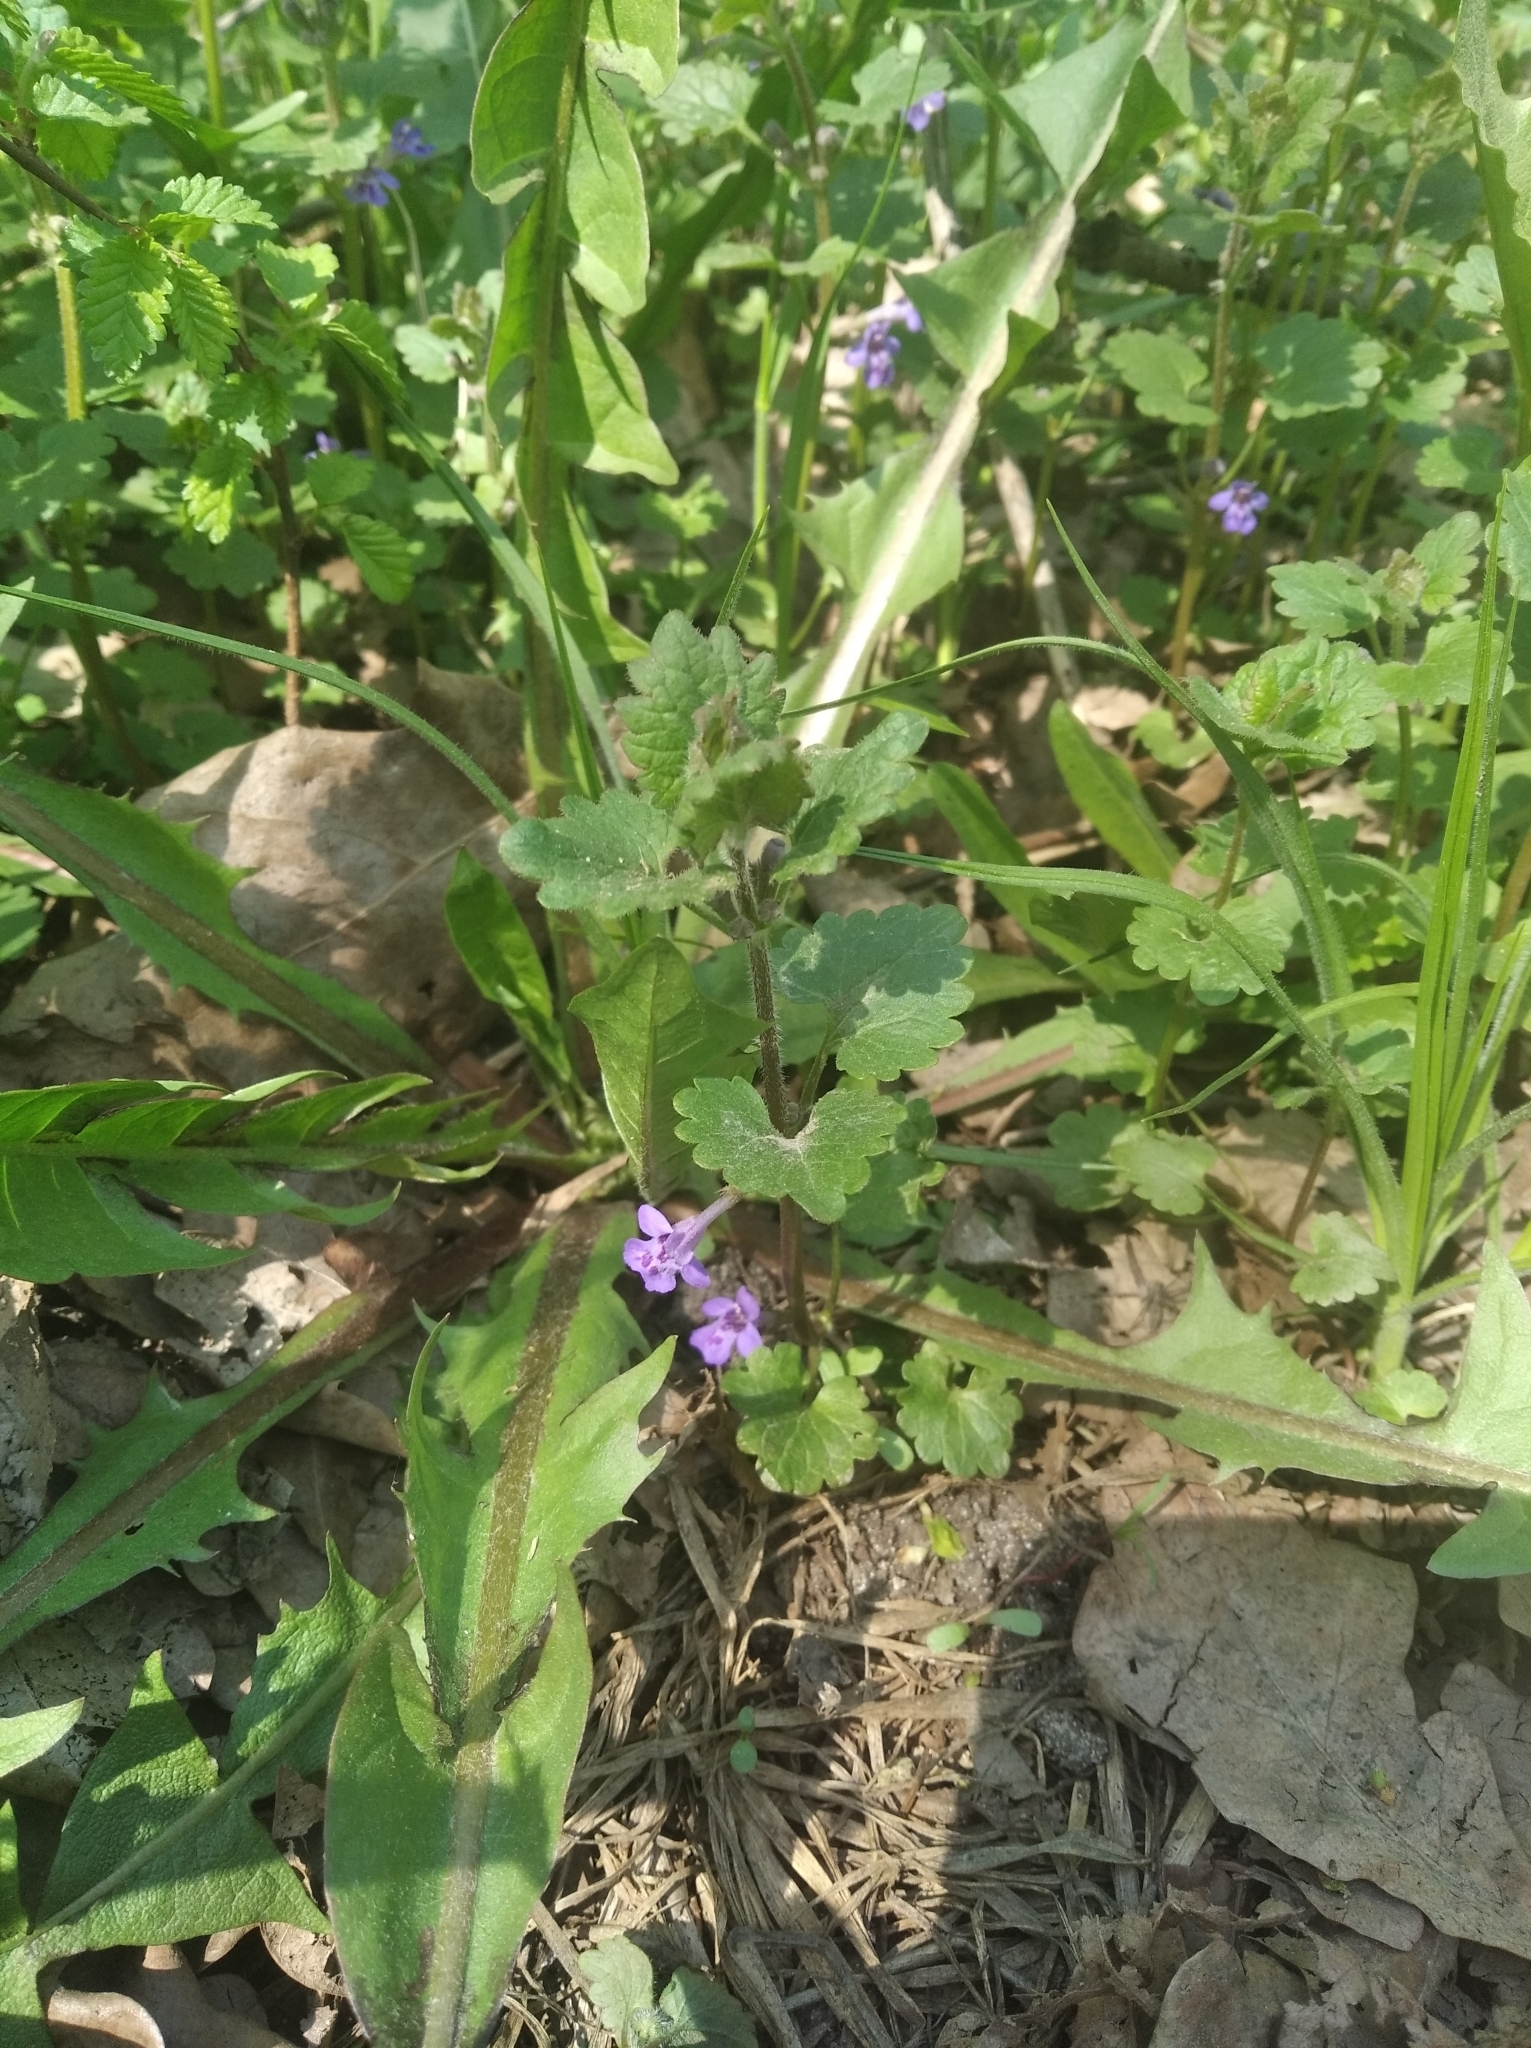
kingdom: Plantae
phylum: Tracheophyta
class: Magnoliopsida
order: Lamiales
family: Lamiaceae
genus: Glechoma
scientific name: Glechoma hederacea
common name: Ground ivy
